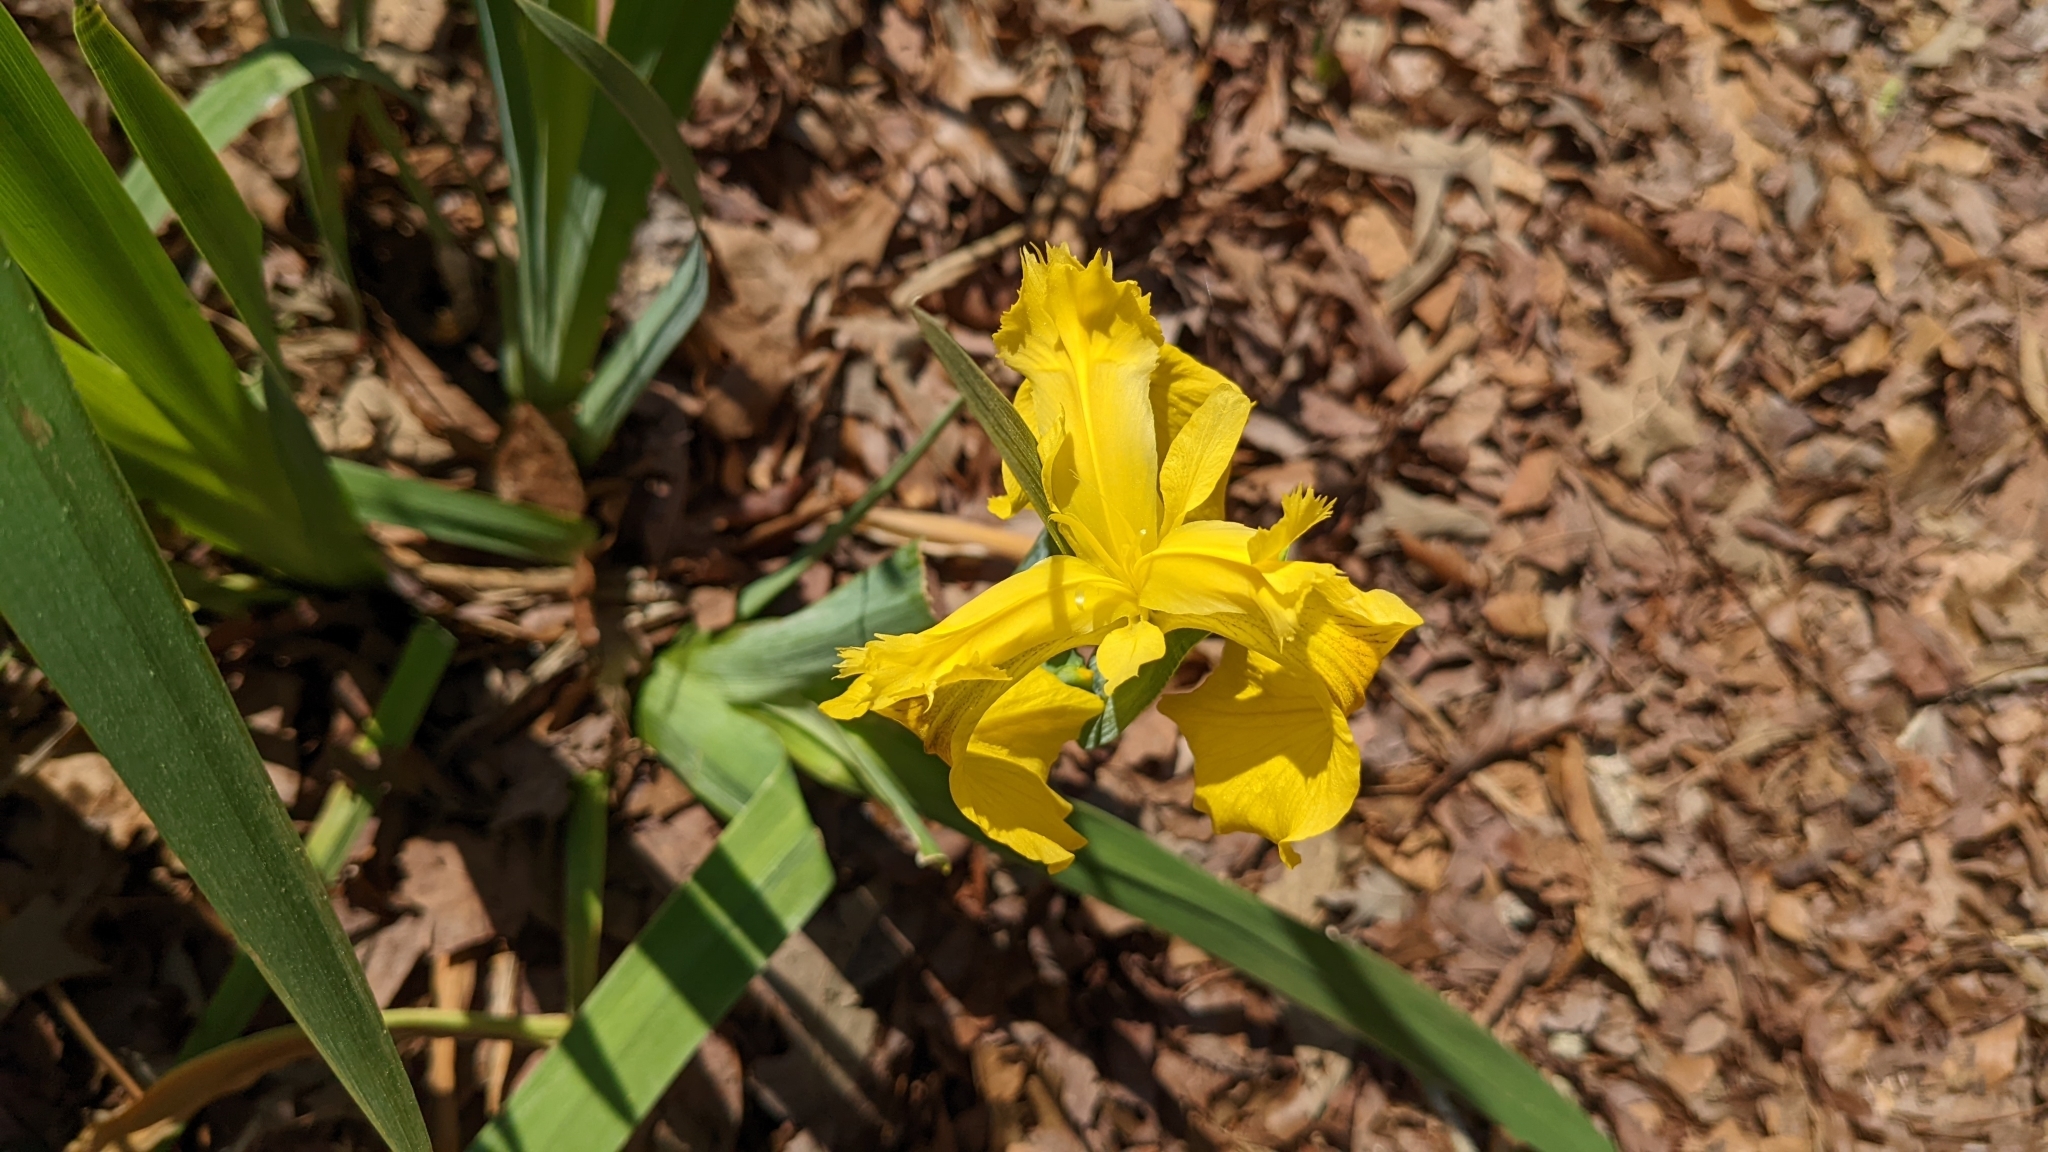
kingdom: Plantae
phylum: Tracheophyta
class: Liliopsida
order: Asparagales
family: Iridaceae
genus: Iris
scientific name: Iris pseudacorus
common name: Yellow flag
